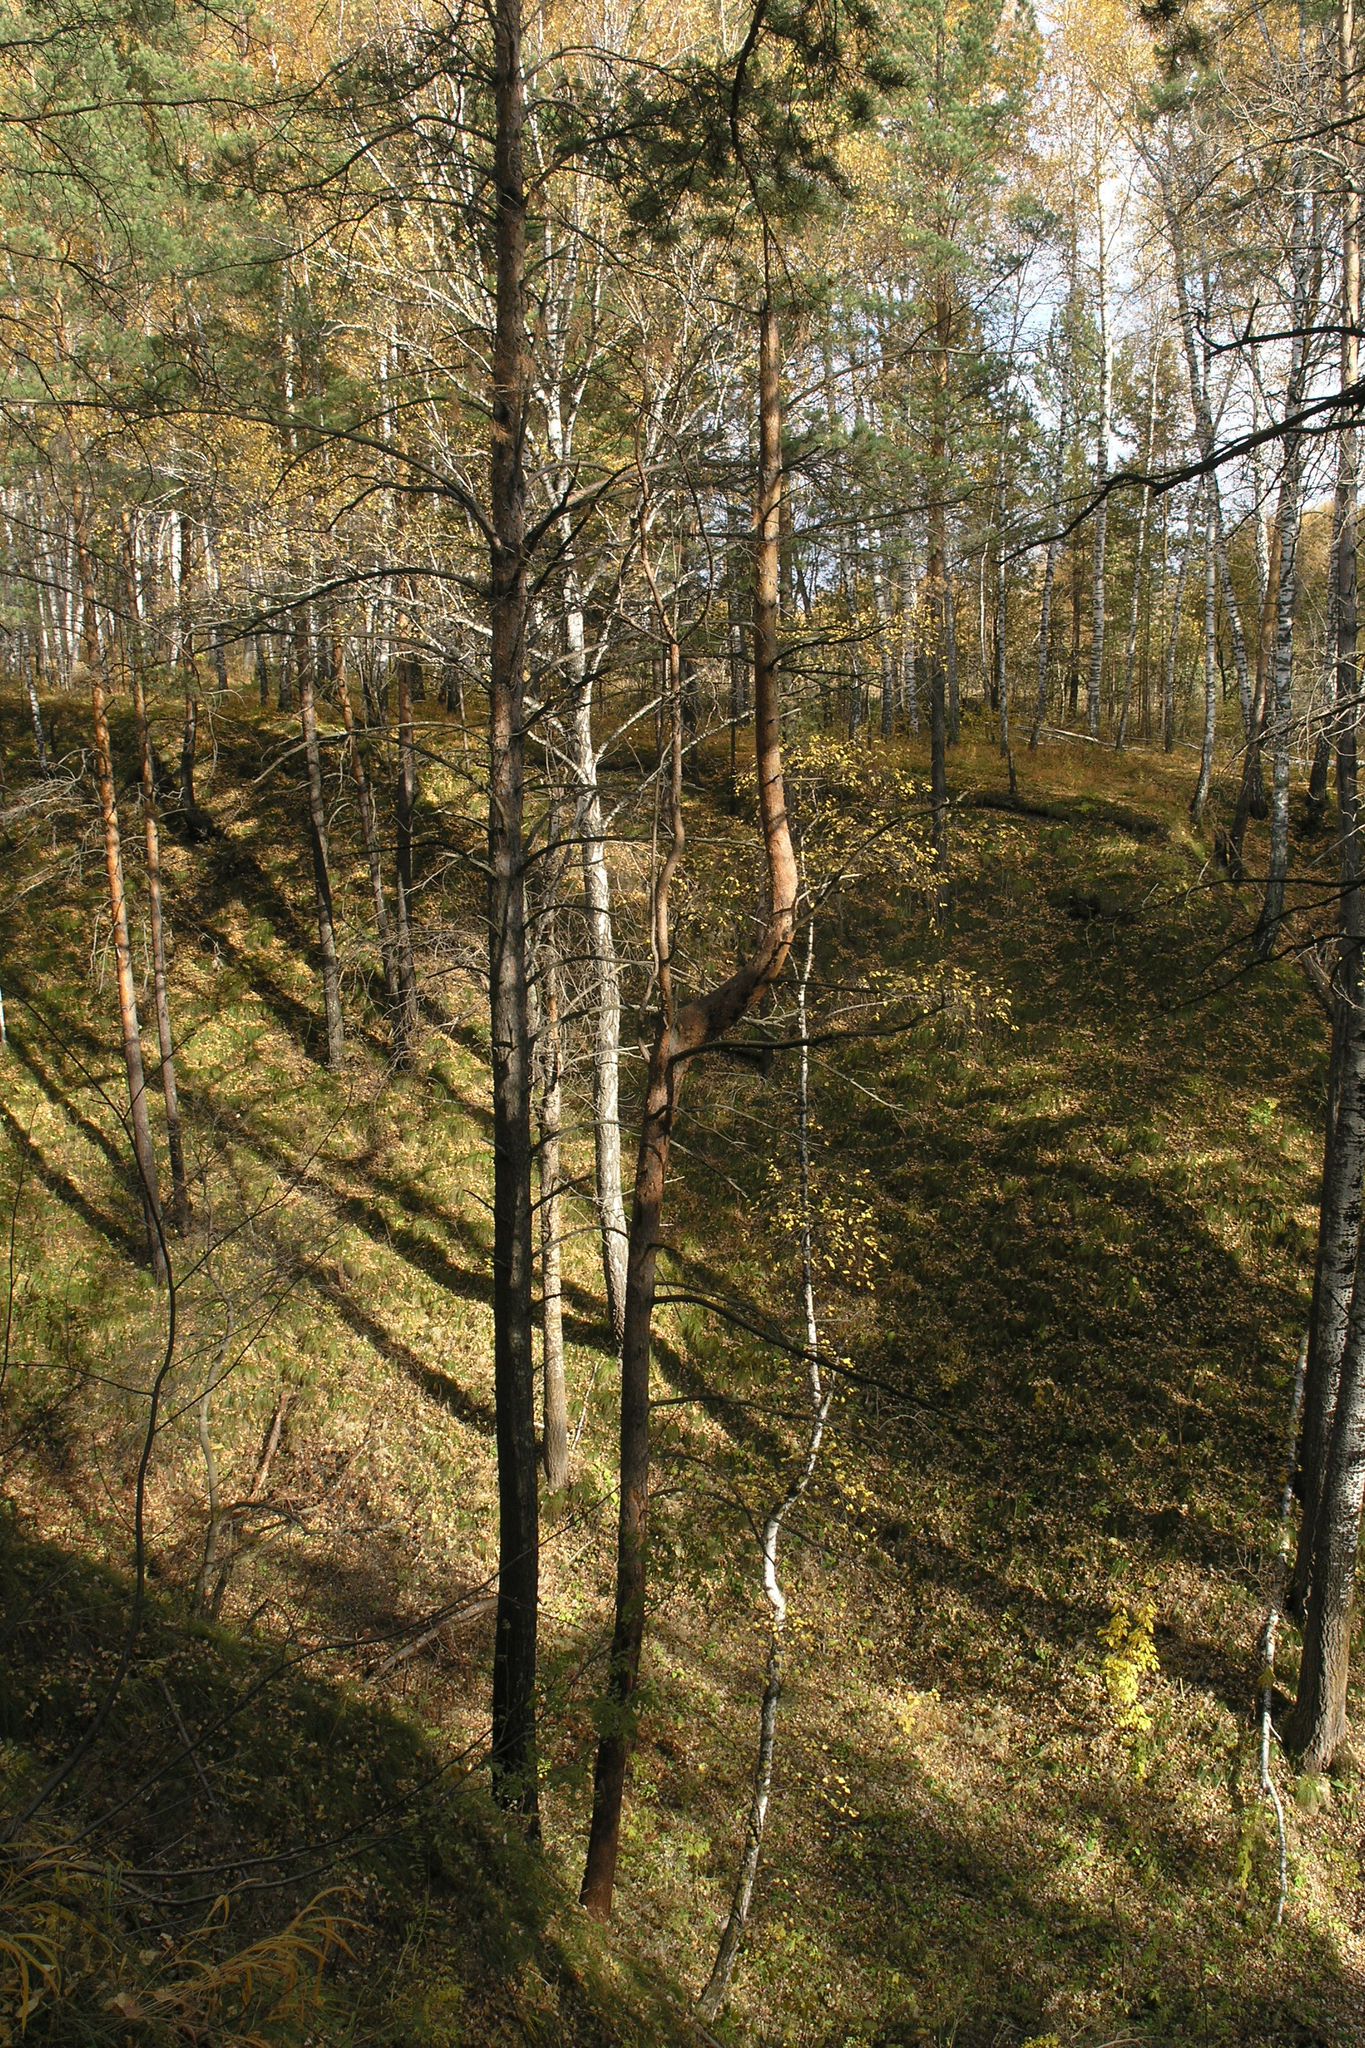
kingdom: Plantae
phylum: Tracheophyta
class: Pinopsida
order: Pinales
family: Pinaceae
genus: Pinus
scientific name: Pinus sylvestris
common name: Scots pine
